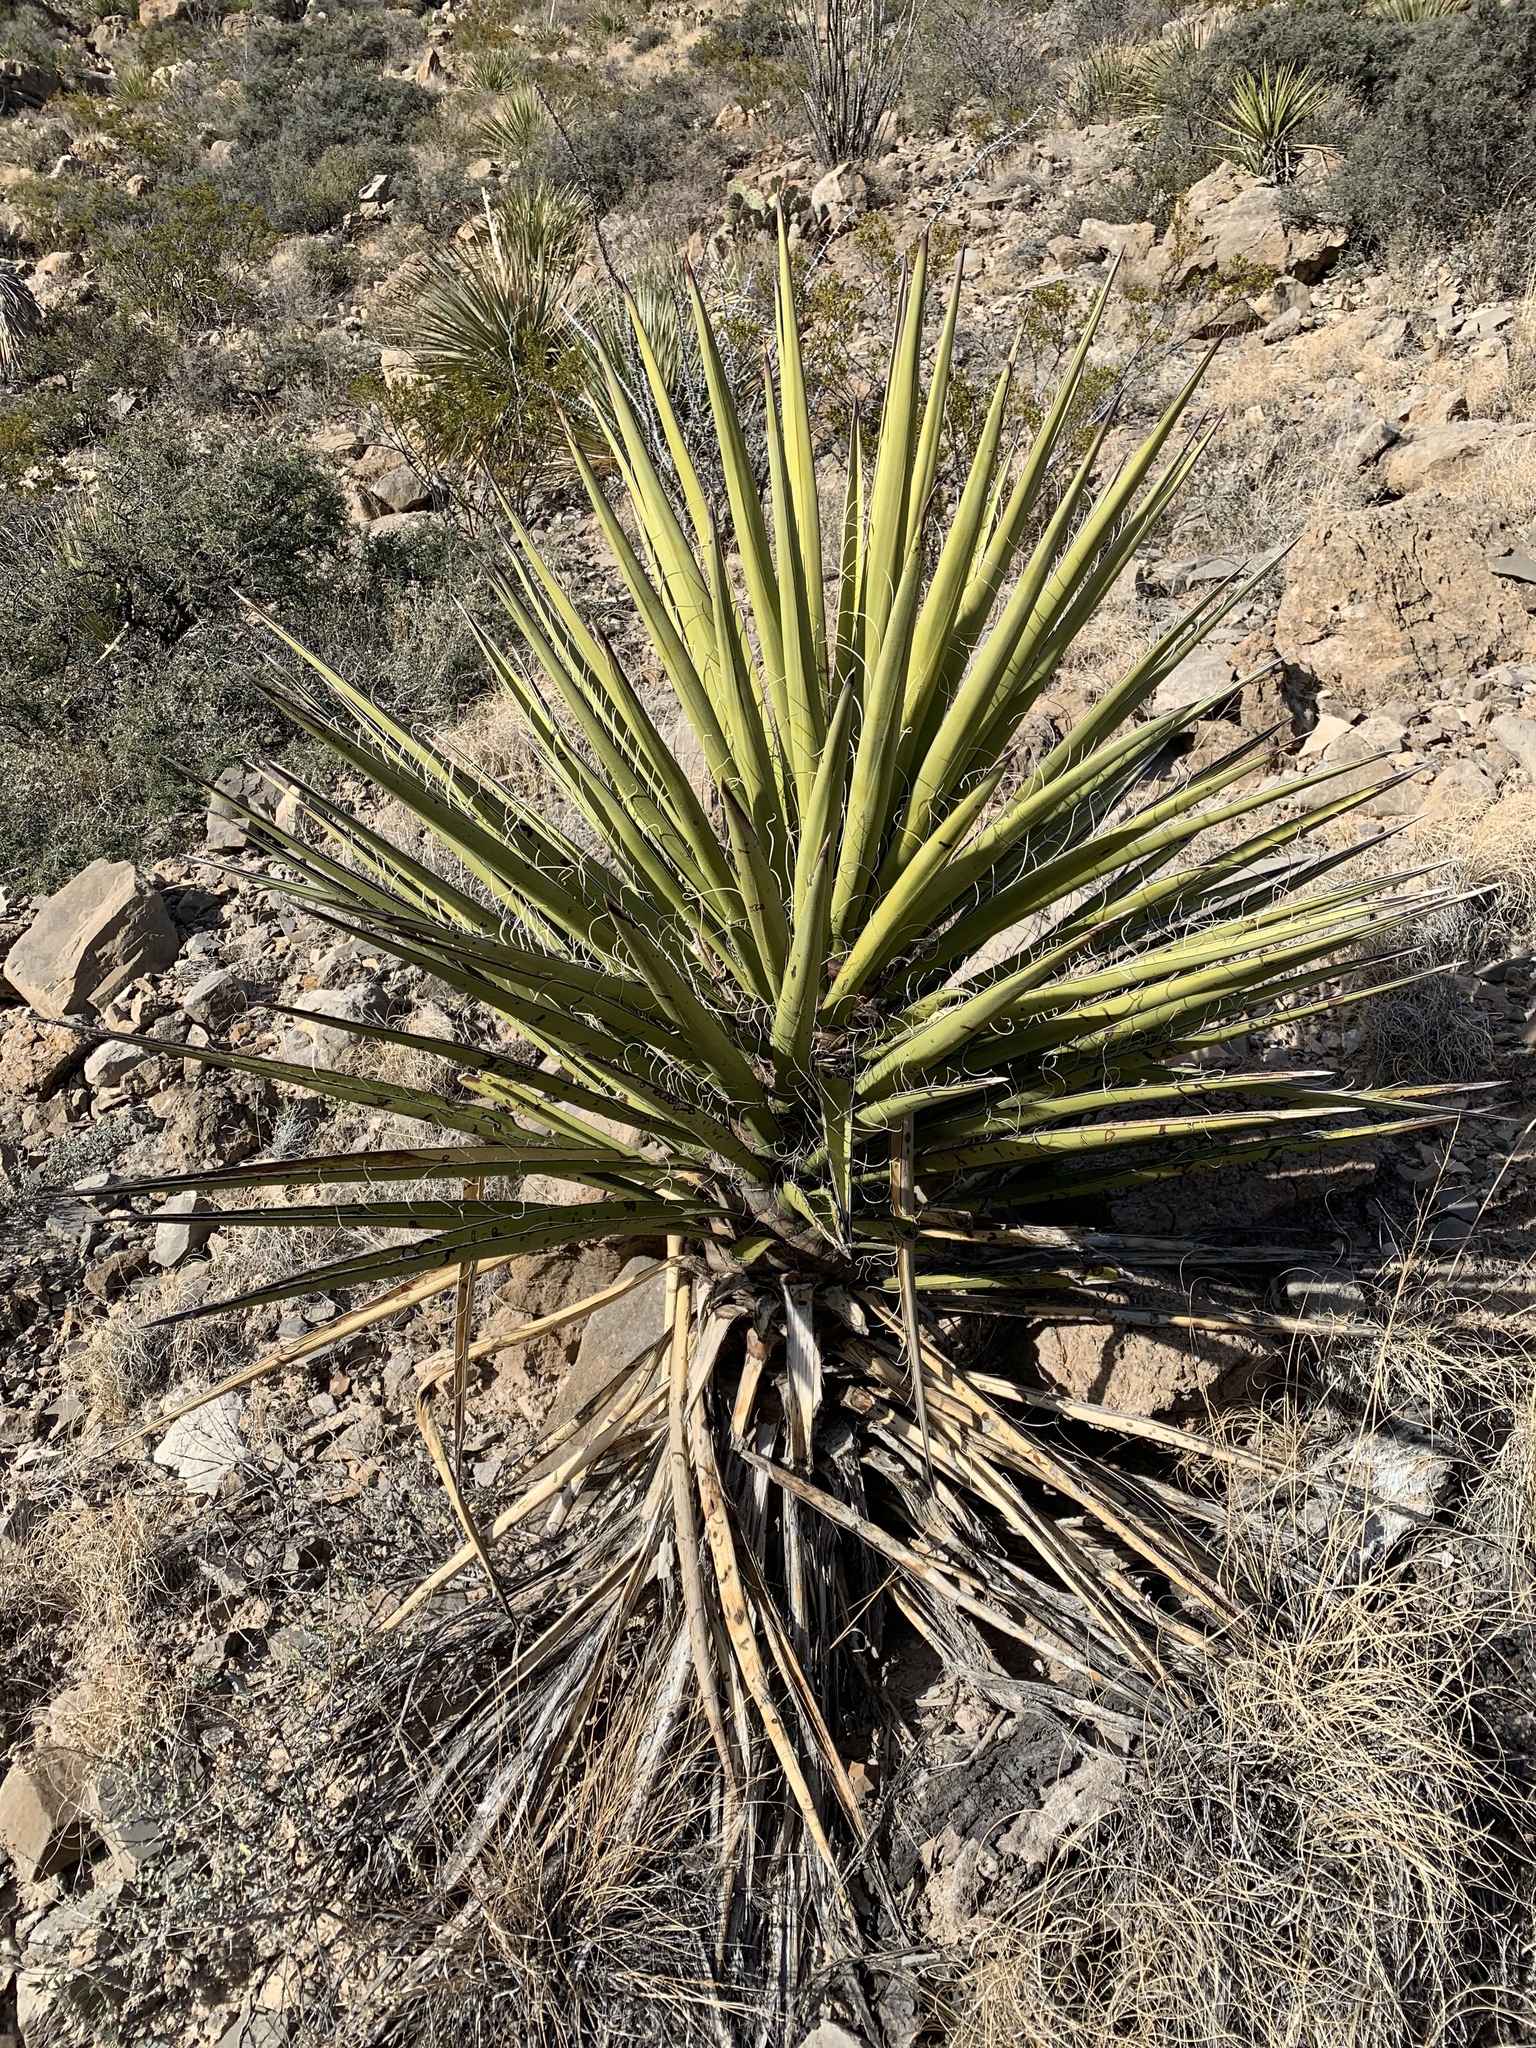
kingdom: Plantae
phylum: Tracheophyta
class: Liliopsida
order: Asparagales
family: Asparagaceae
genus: Yucca
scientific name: Yucca treculiana
